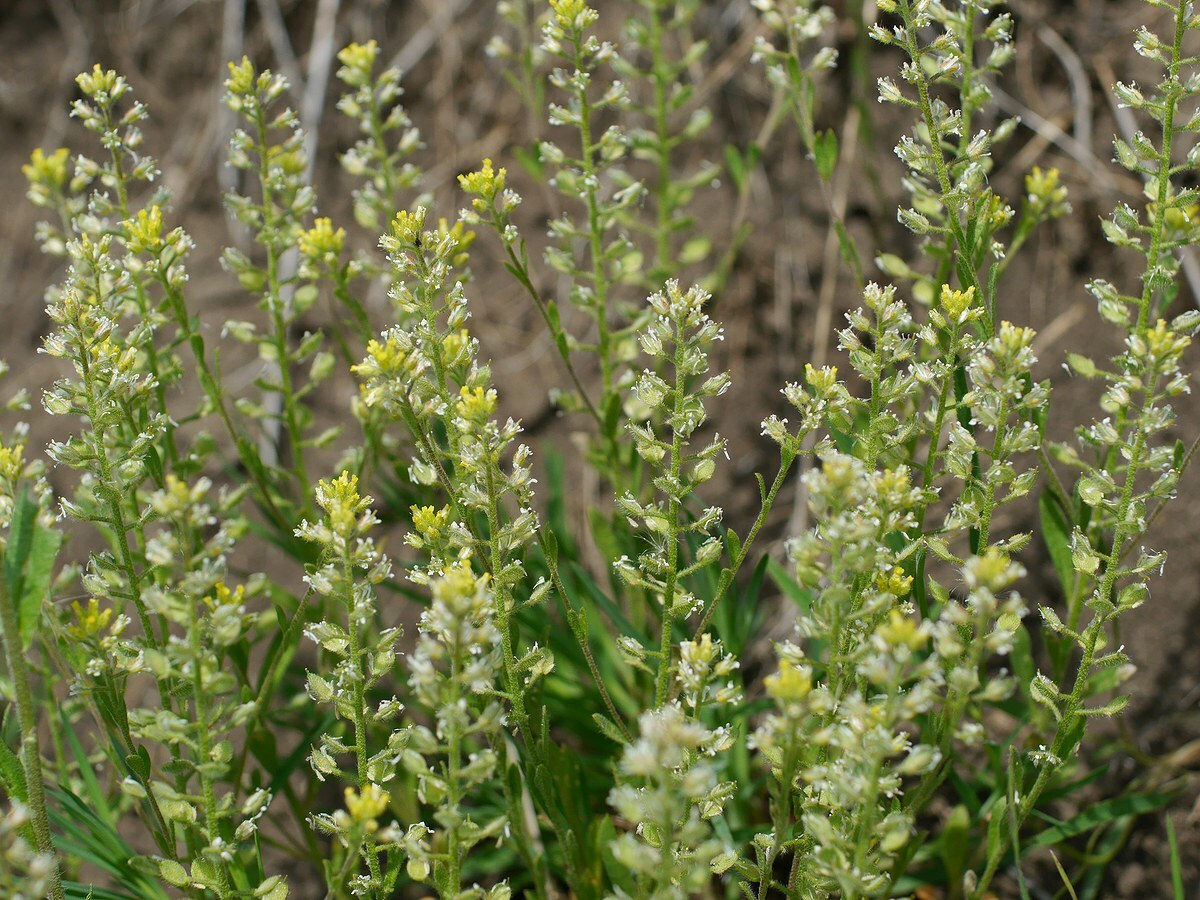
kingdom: Plantae
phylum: Tracheophyta
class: Magnoliopsida
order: Brassicales
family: Brassicaceae
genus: Alyssum
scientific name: Alyssum hirsutum
